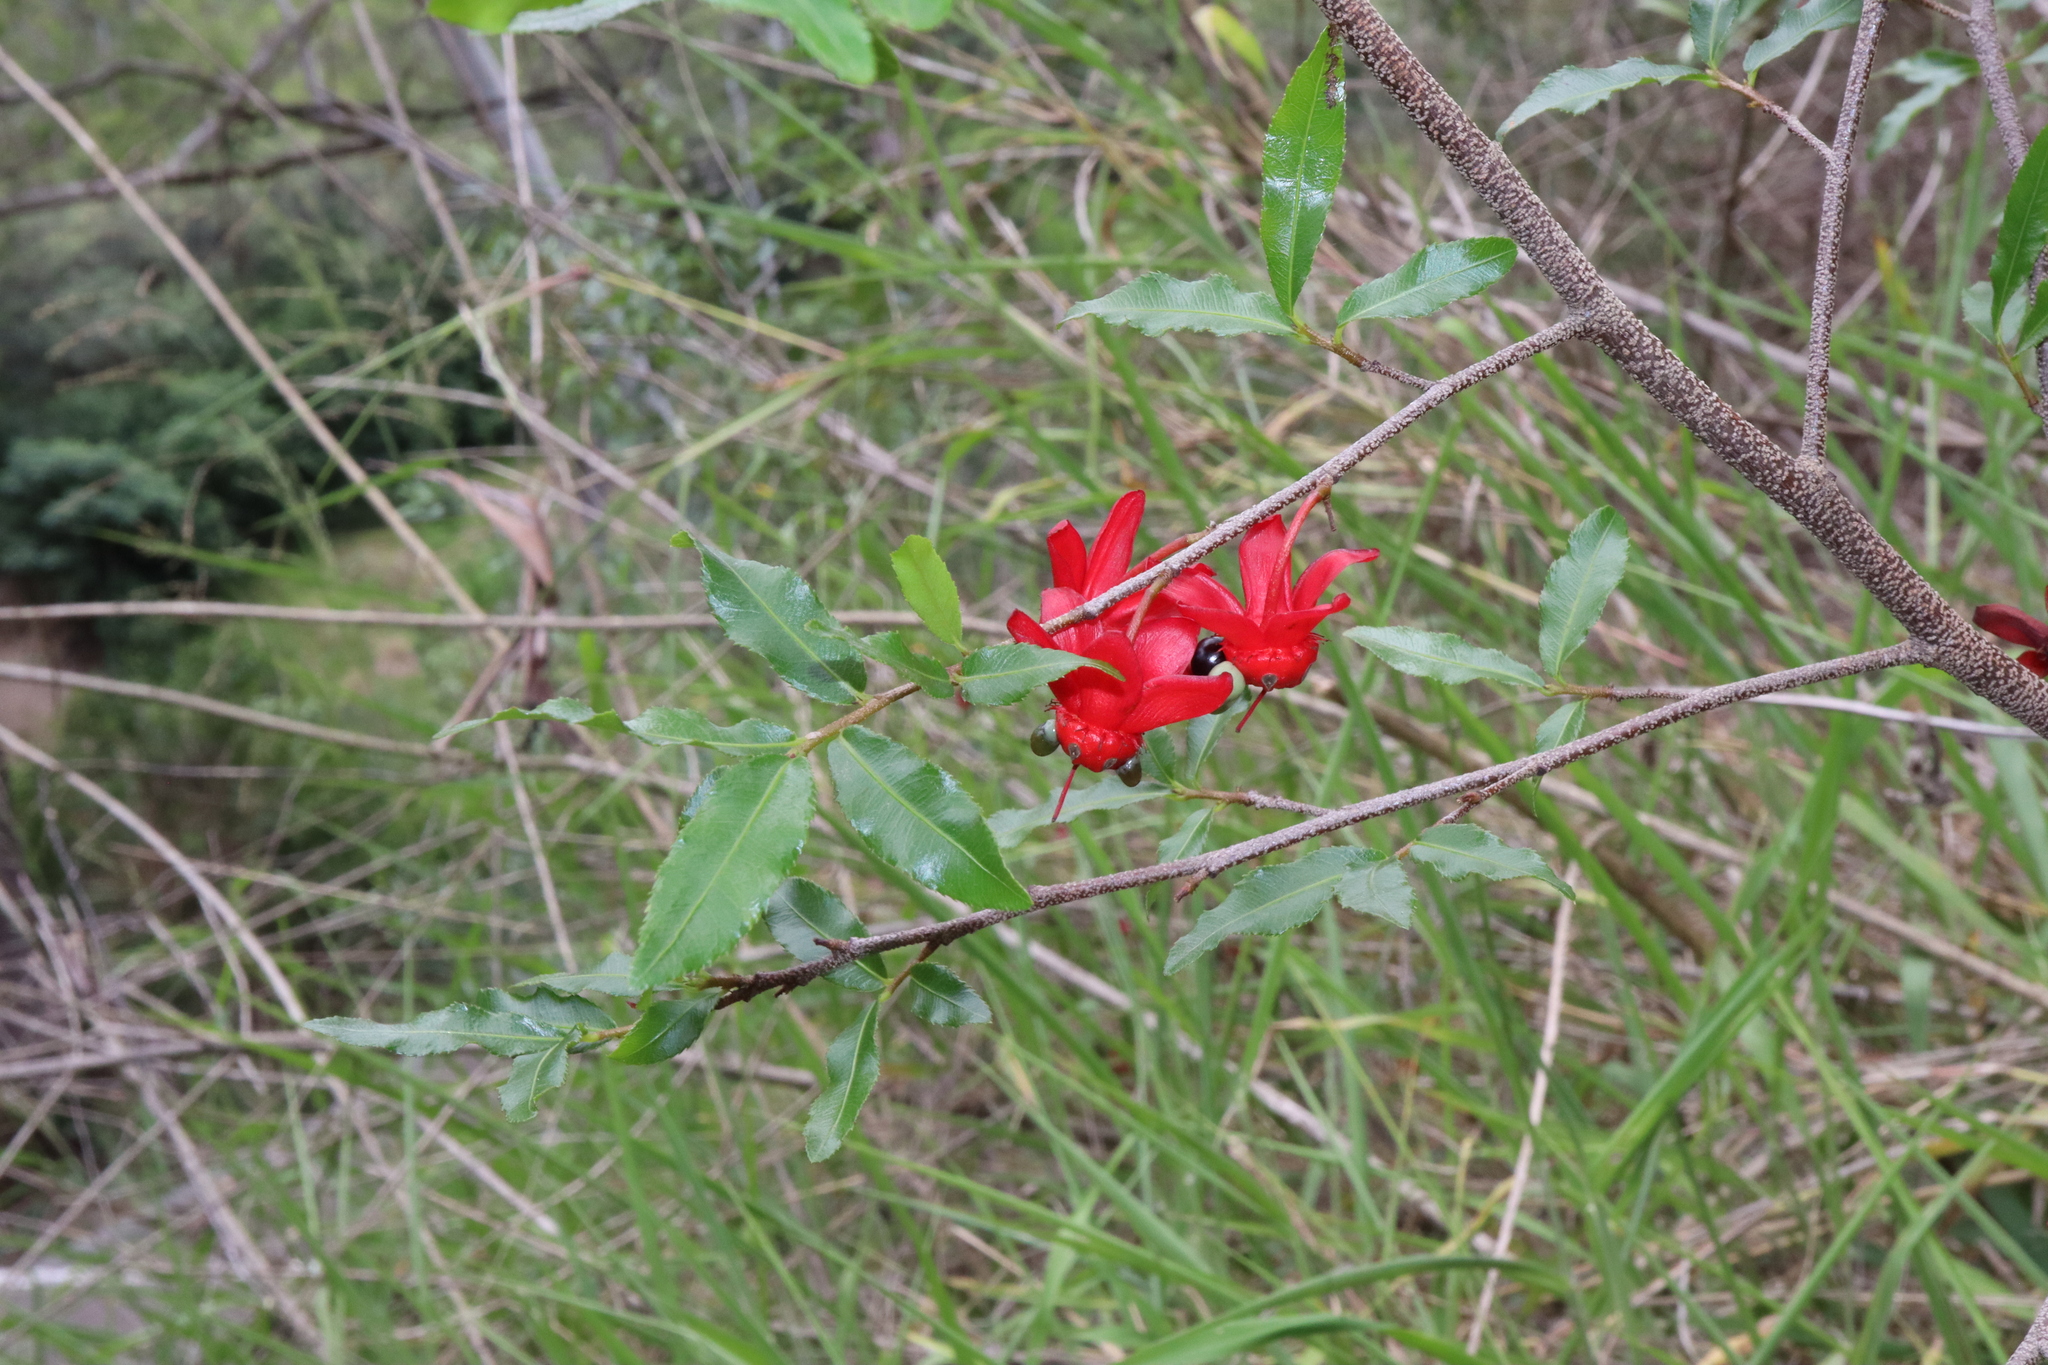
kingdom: Plantae
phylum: Tracheophyta
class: Magnoliopsida
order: Malpighiales
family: Ochnaceae
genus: Ochna
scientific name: Ochna serrulata
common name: Mickey mouse plant
